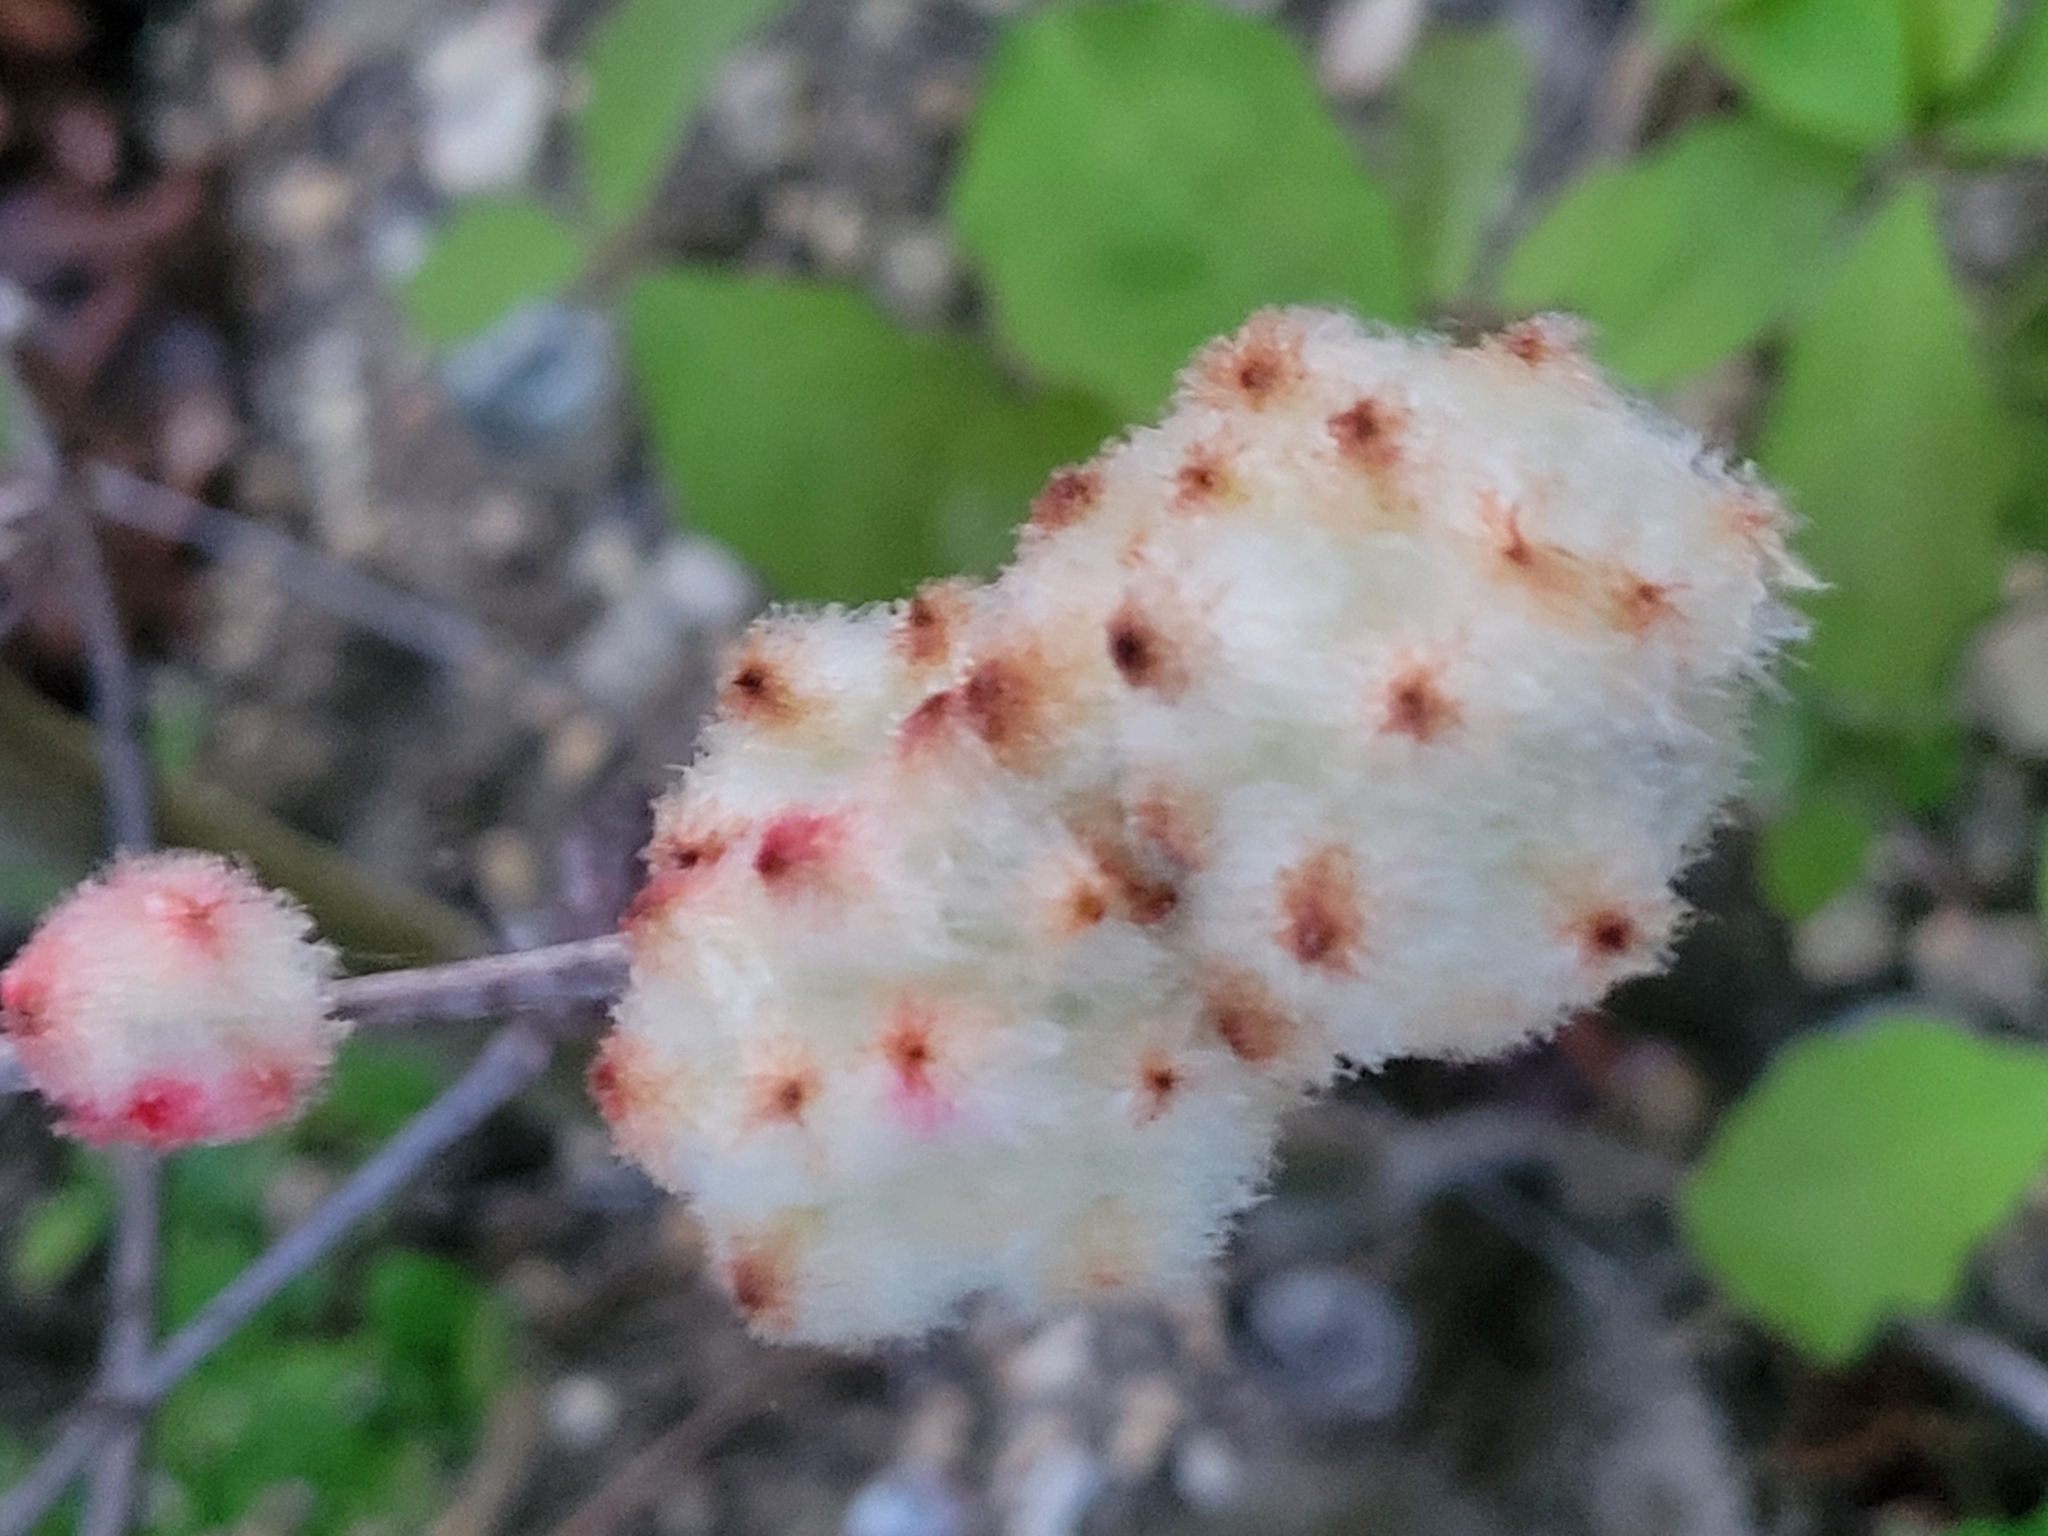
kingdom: Animalia
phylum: Arthropoda
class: Insecta
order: Hymenoptera
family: Cynipidae
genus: Callirhytis
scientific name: Callirhytis
